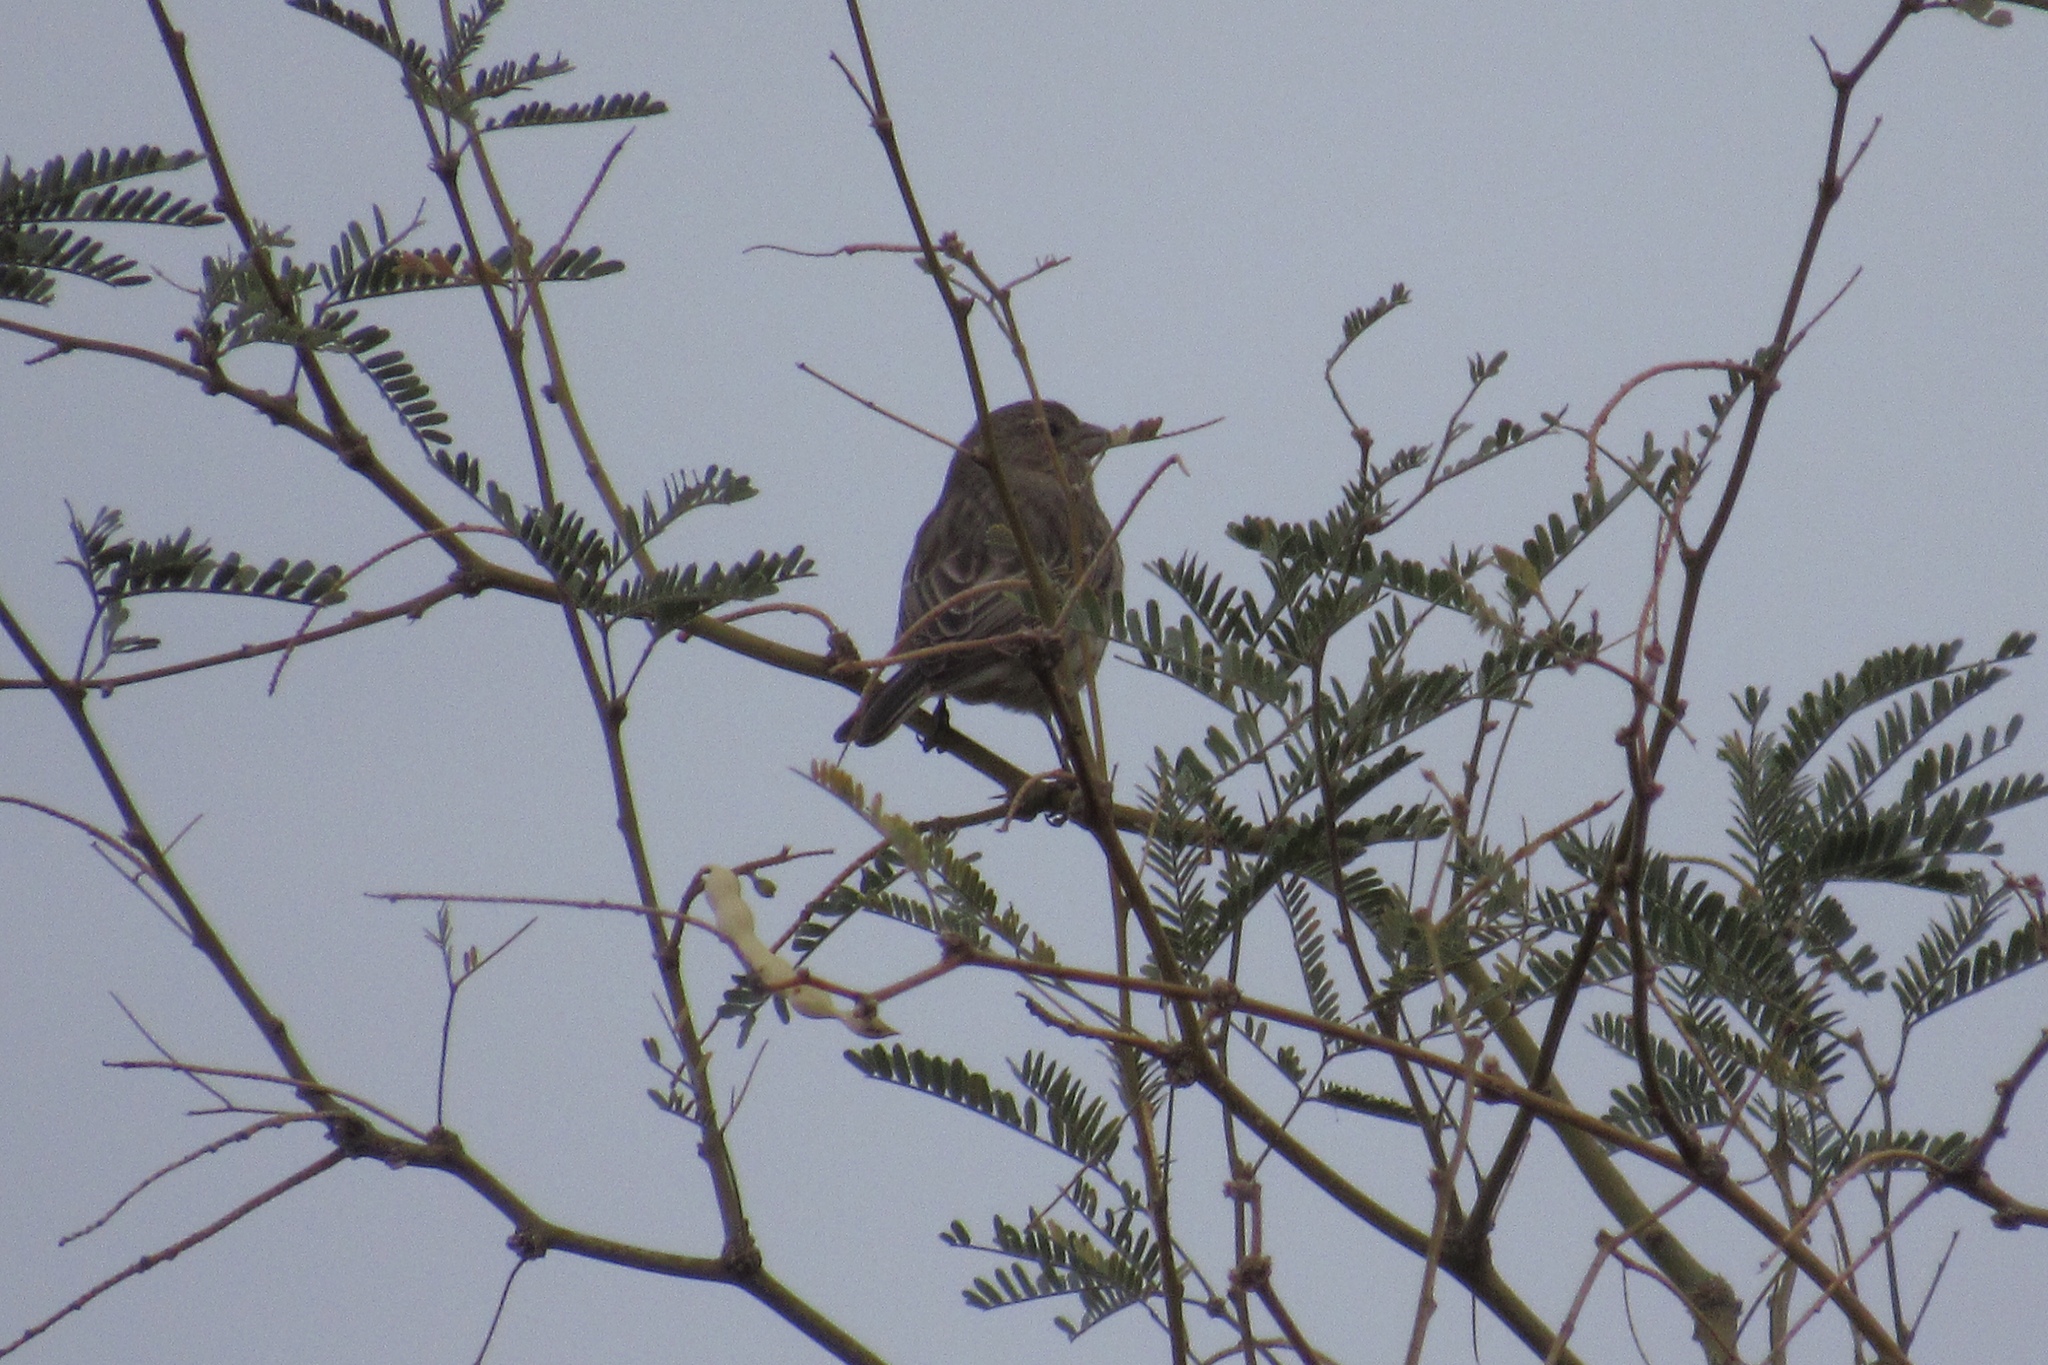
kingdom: Animalia
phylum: Chordata
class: Aves
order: Passeriformes
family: Fringillidae
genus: Haemorhous
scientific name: Haemorhous mexicanus
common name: House finch
